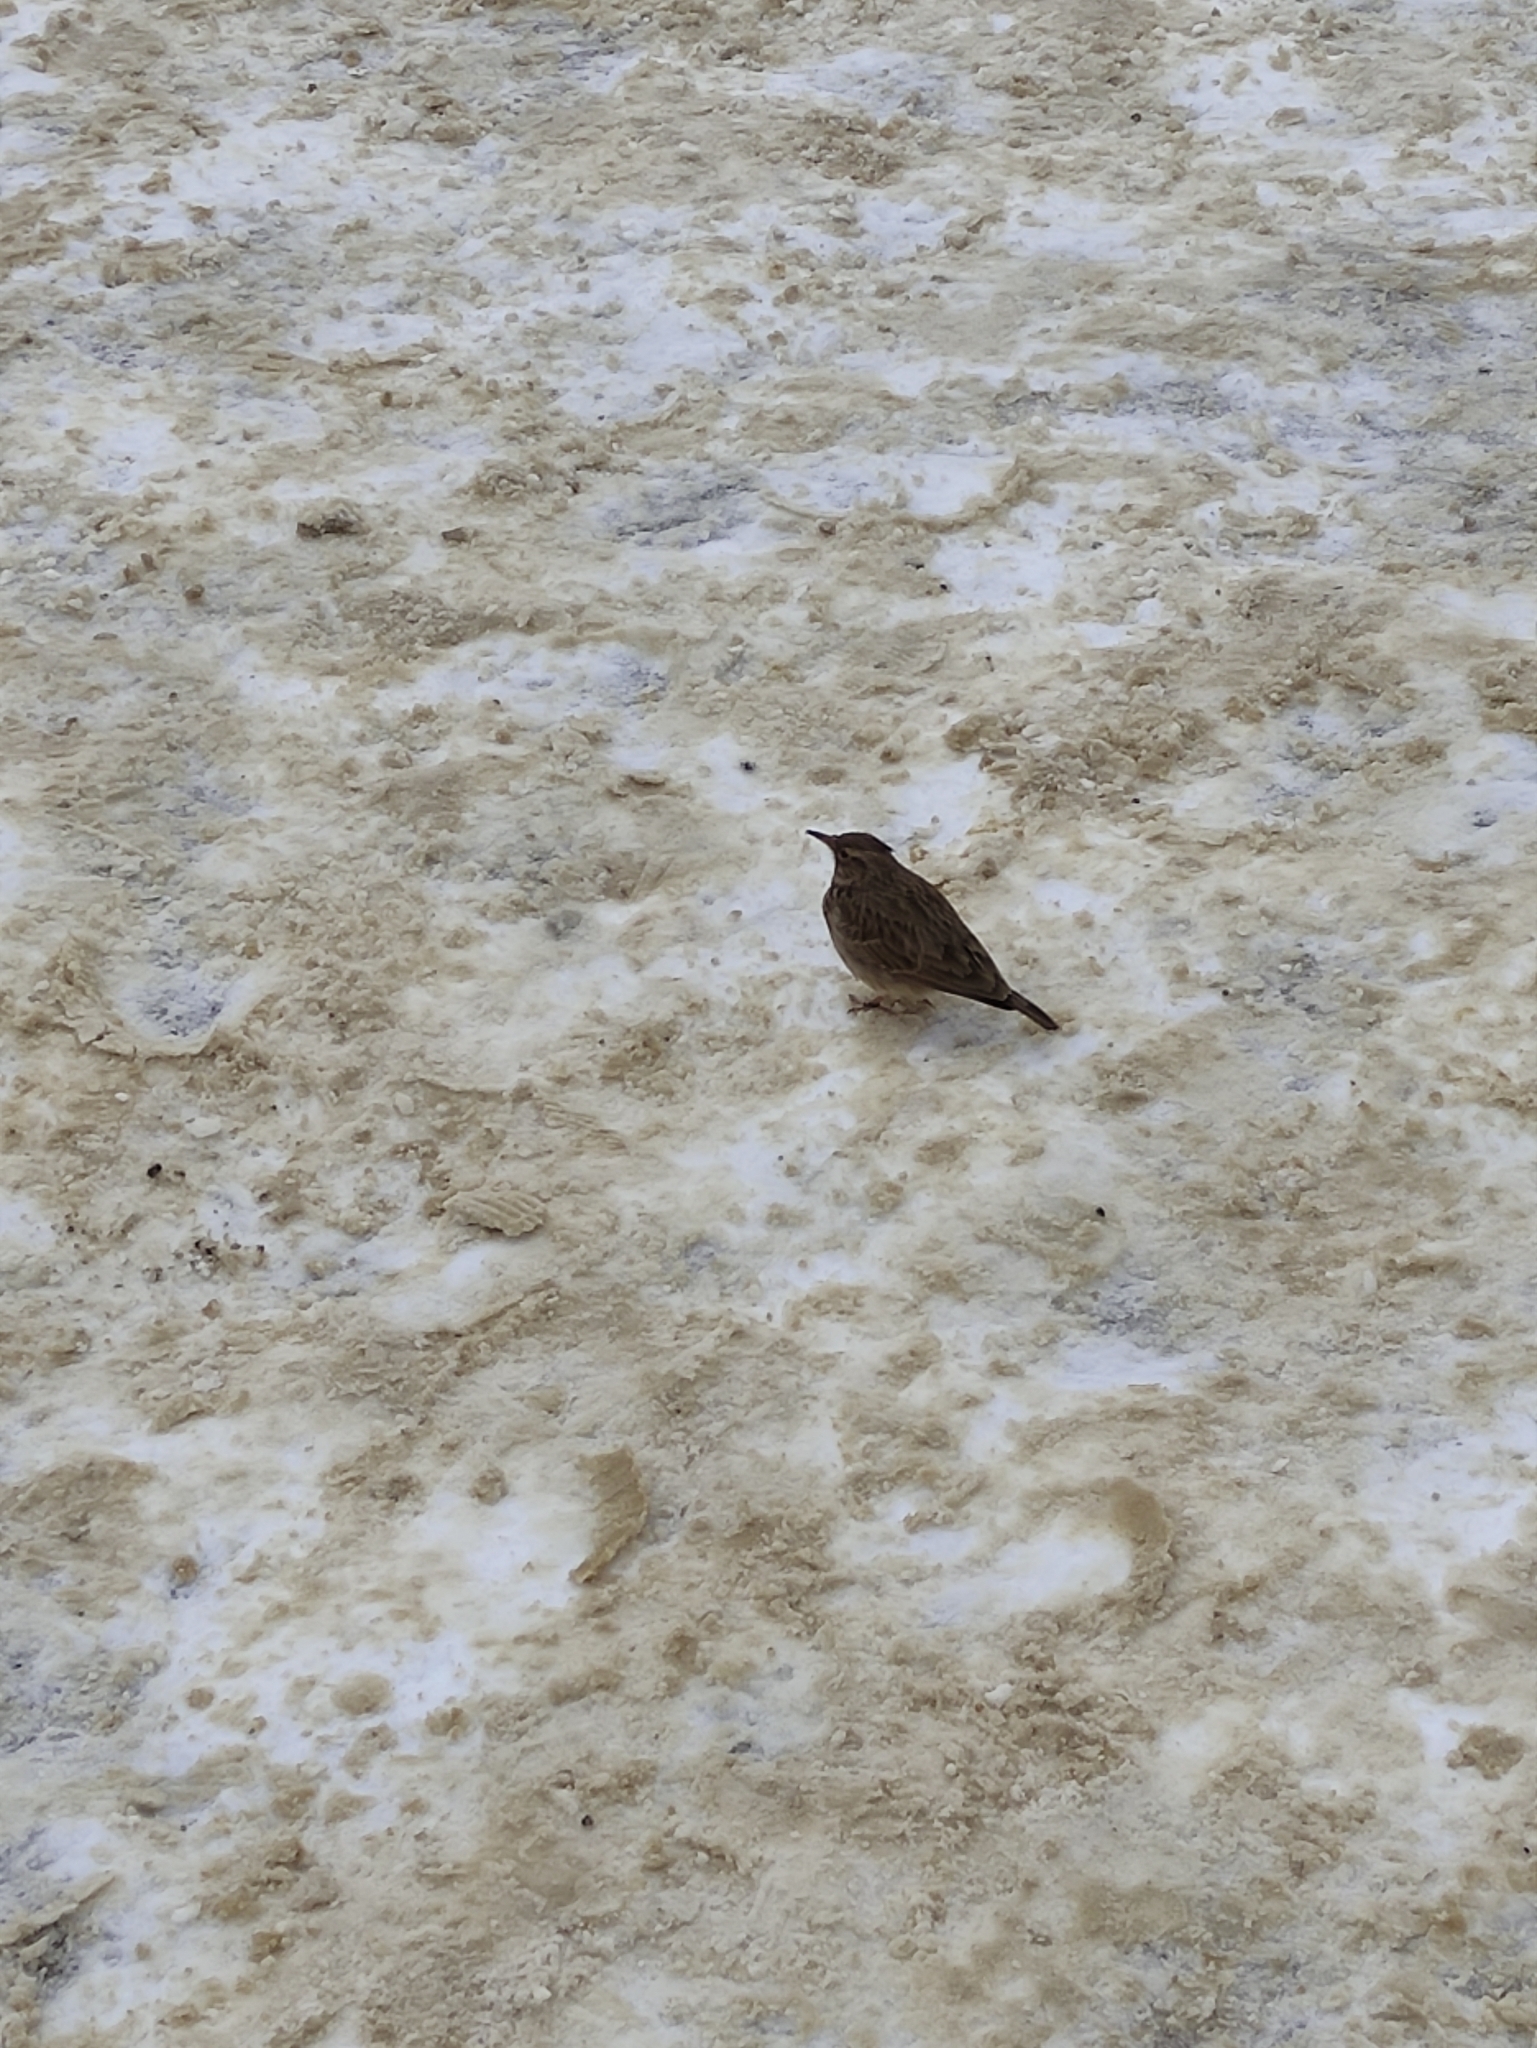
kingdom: Animalia
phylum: Chordata
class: Aves
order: Passeriformes
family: Alaudidae
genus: Galerida
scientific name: Galerida cristata
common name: Crested lark
